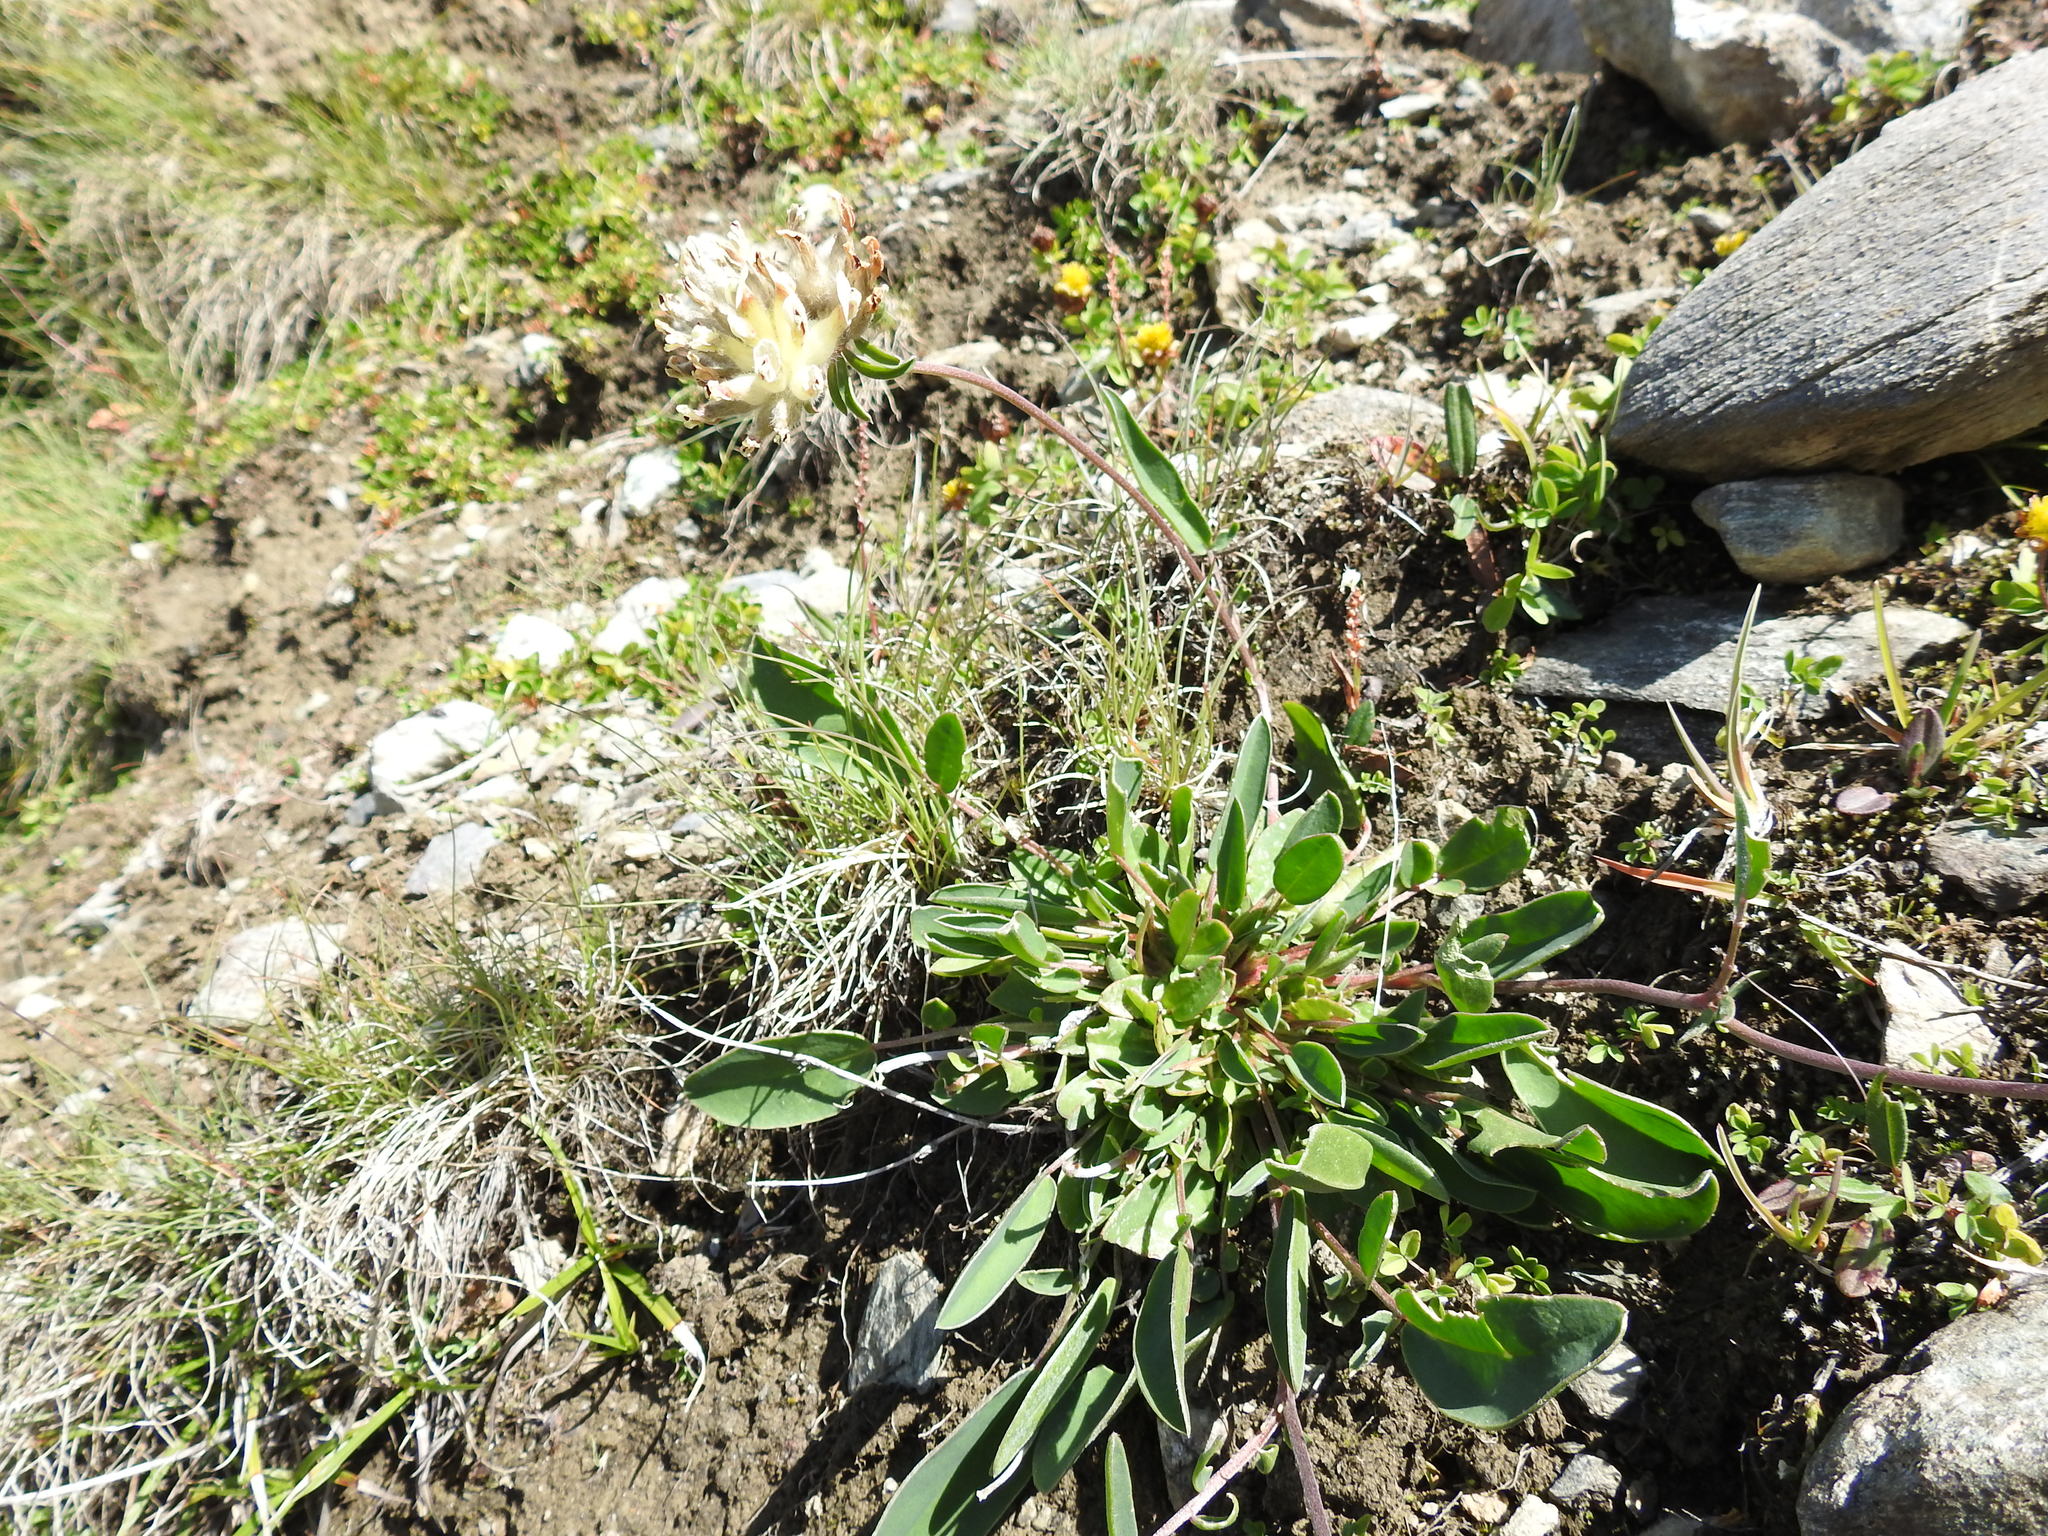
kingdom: Plantae
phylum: Tracheophyta
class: Magnoliopsida
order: Fabales
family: Fabaceae
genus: Anthyllis
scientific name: Anthyllis vulneraria
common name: Kidney vetch
